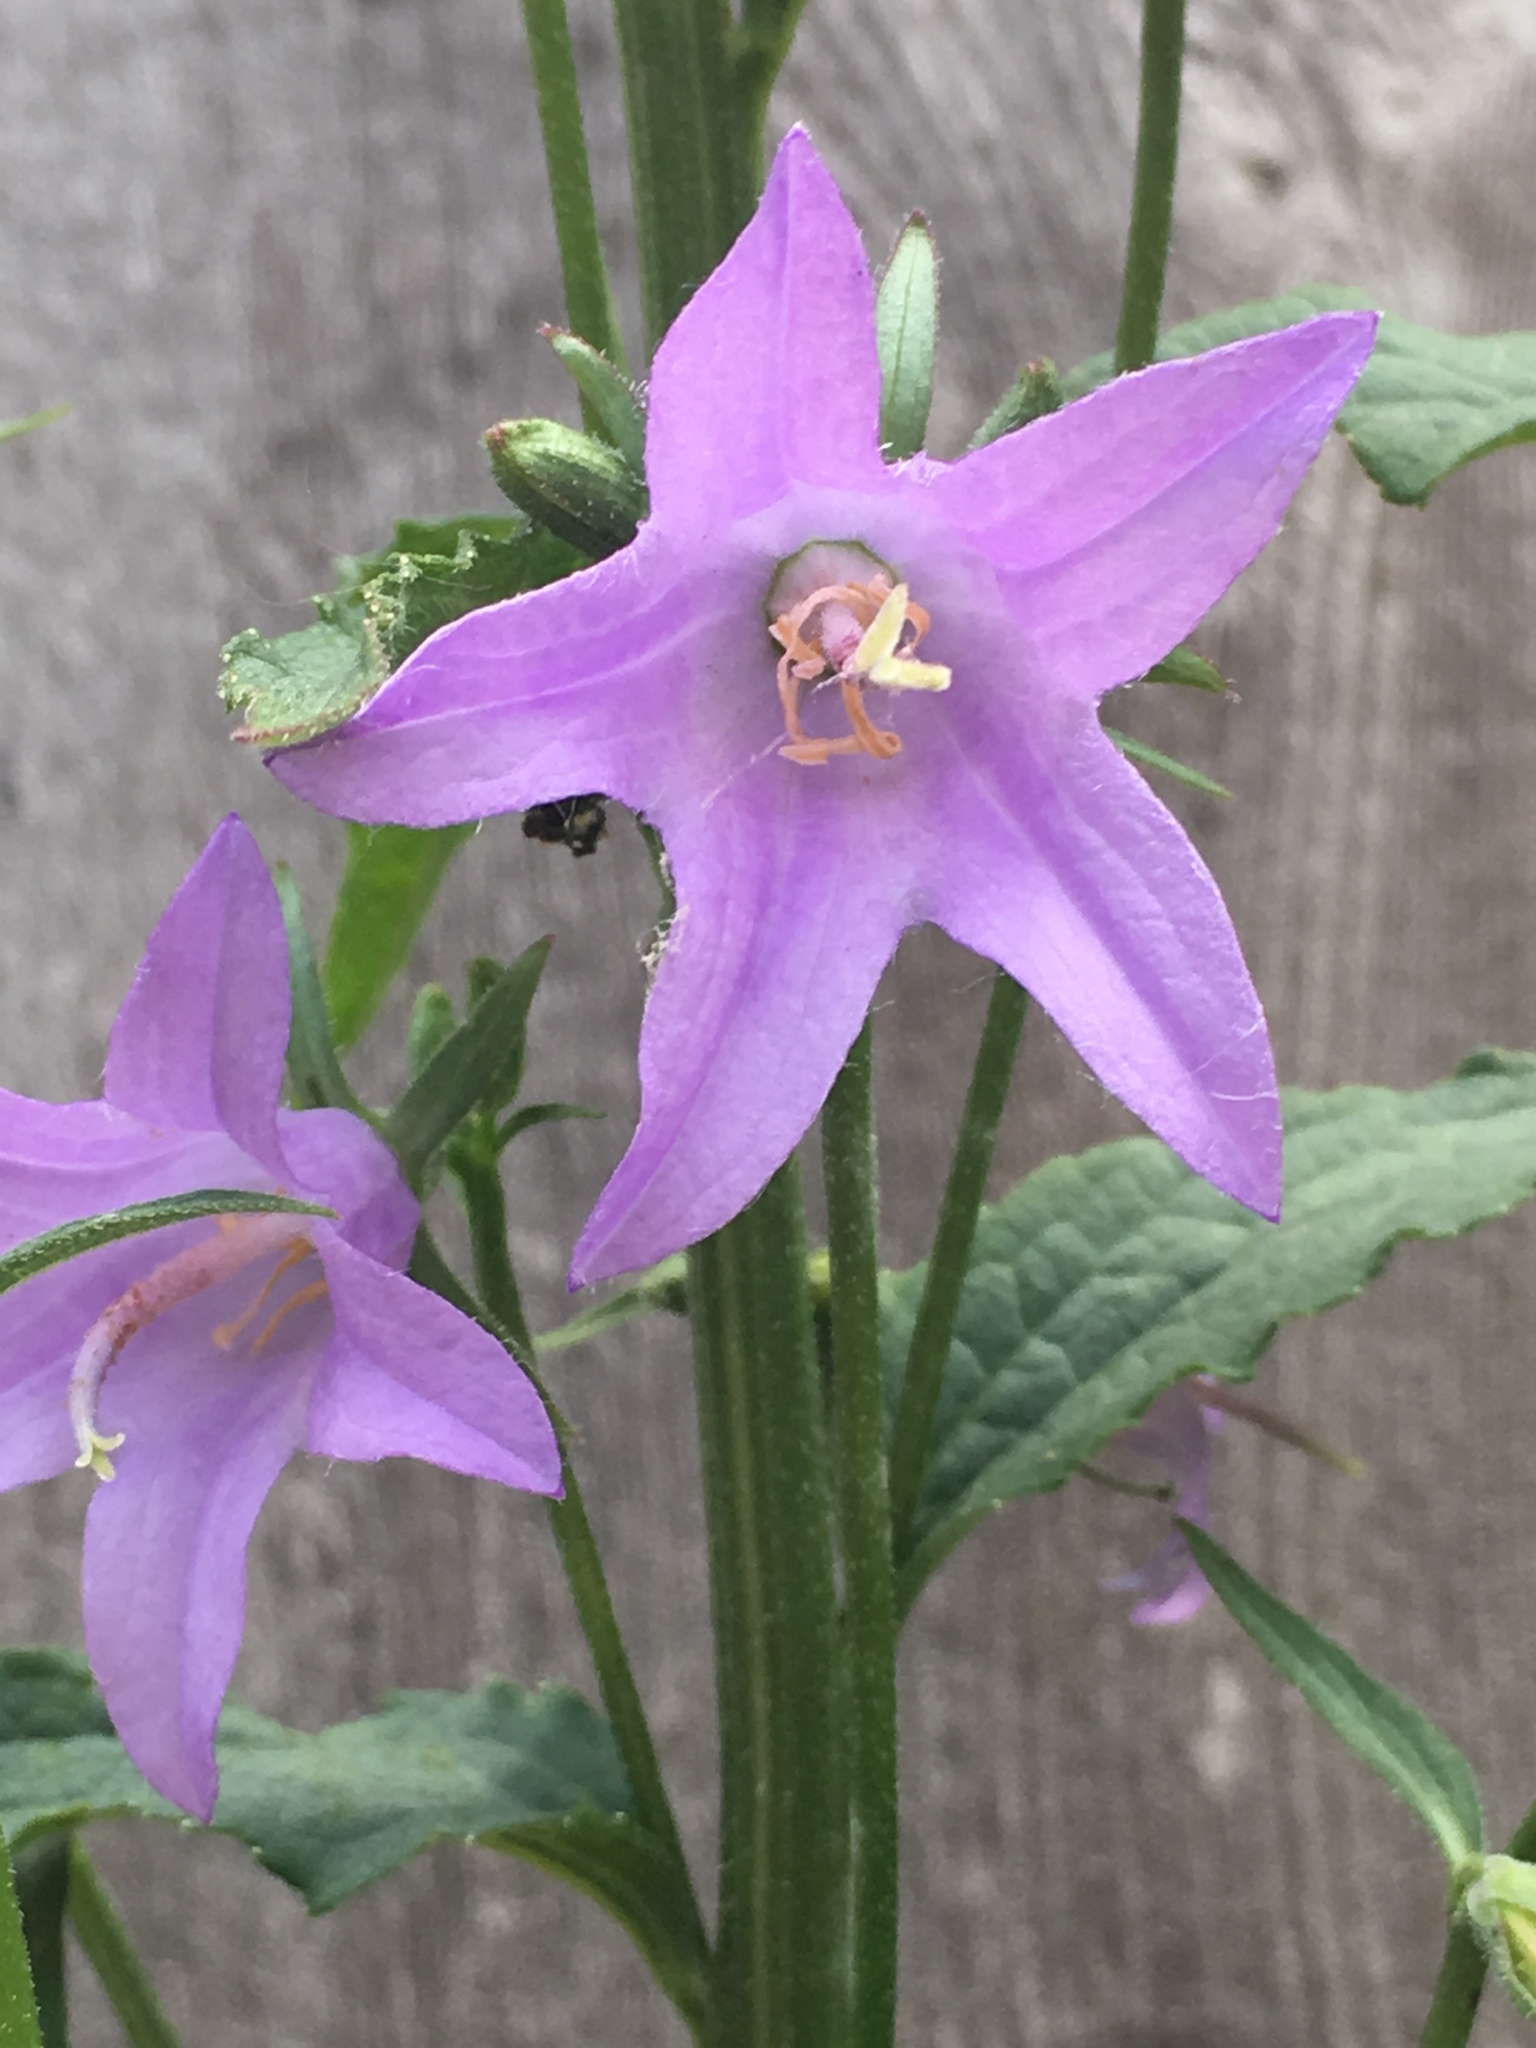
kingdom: Plantae
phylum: Tracheophyta
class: Magnoliopsida
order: Asterales
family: Campanulaceae
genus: Campanula
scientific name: Campanula rapunculoides
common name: Creeping bellflower
